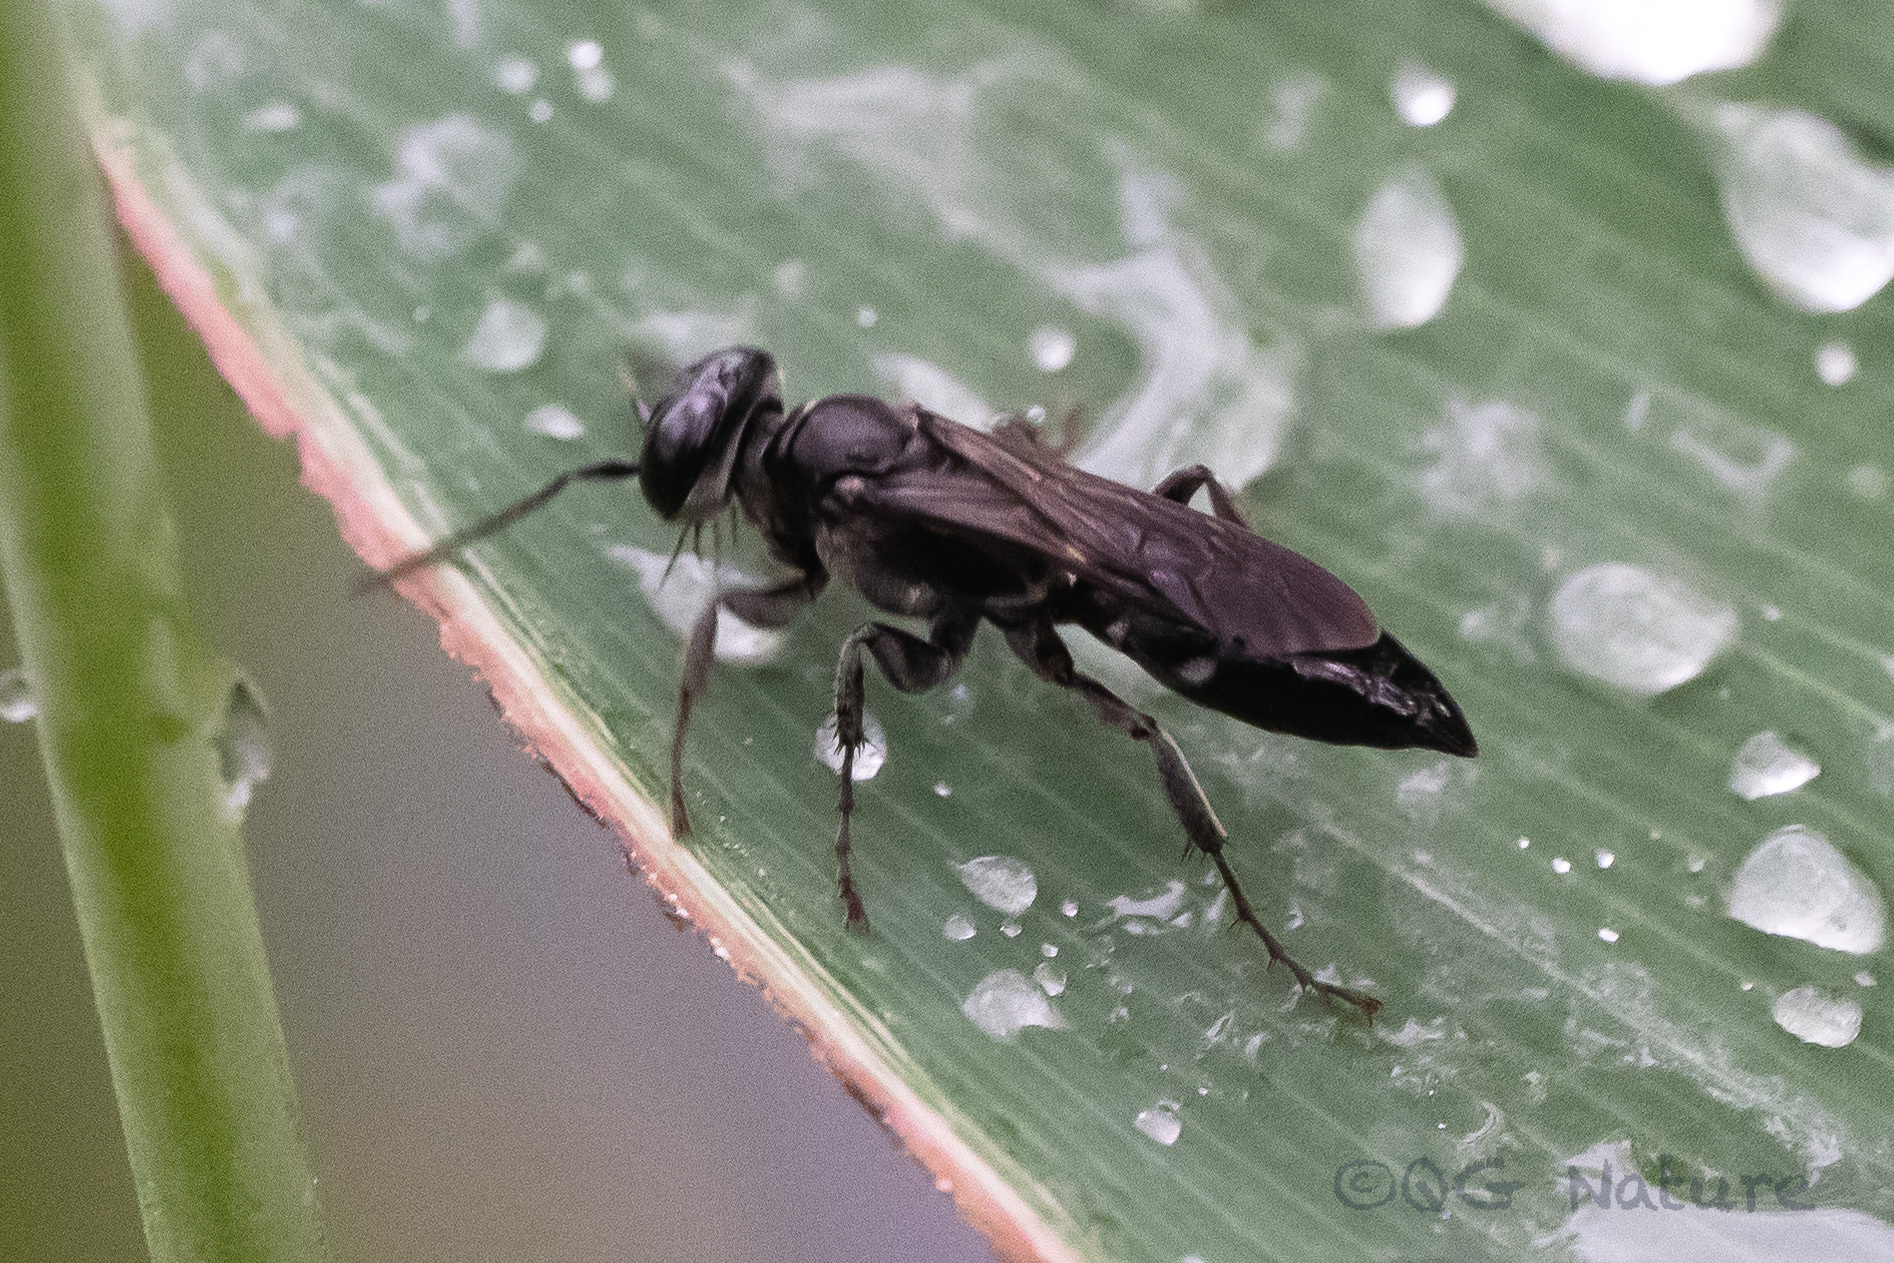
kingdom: Animalia
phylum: Arthropoda
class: Insecta
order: Hymenoptera
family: Crabronidae
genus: Larra
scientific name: Larra
